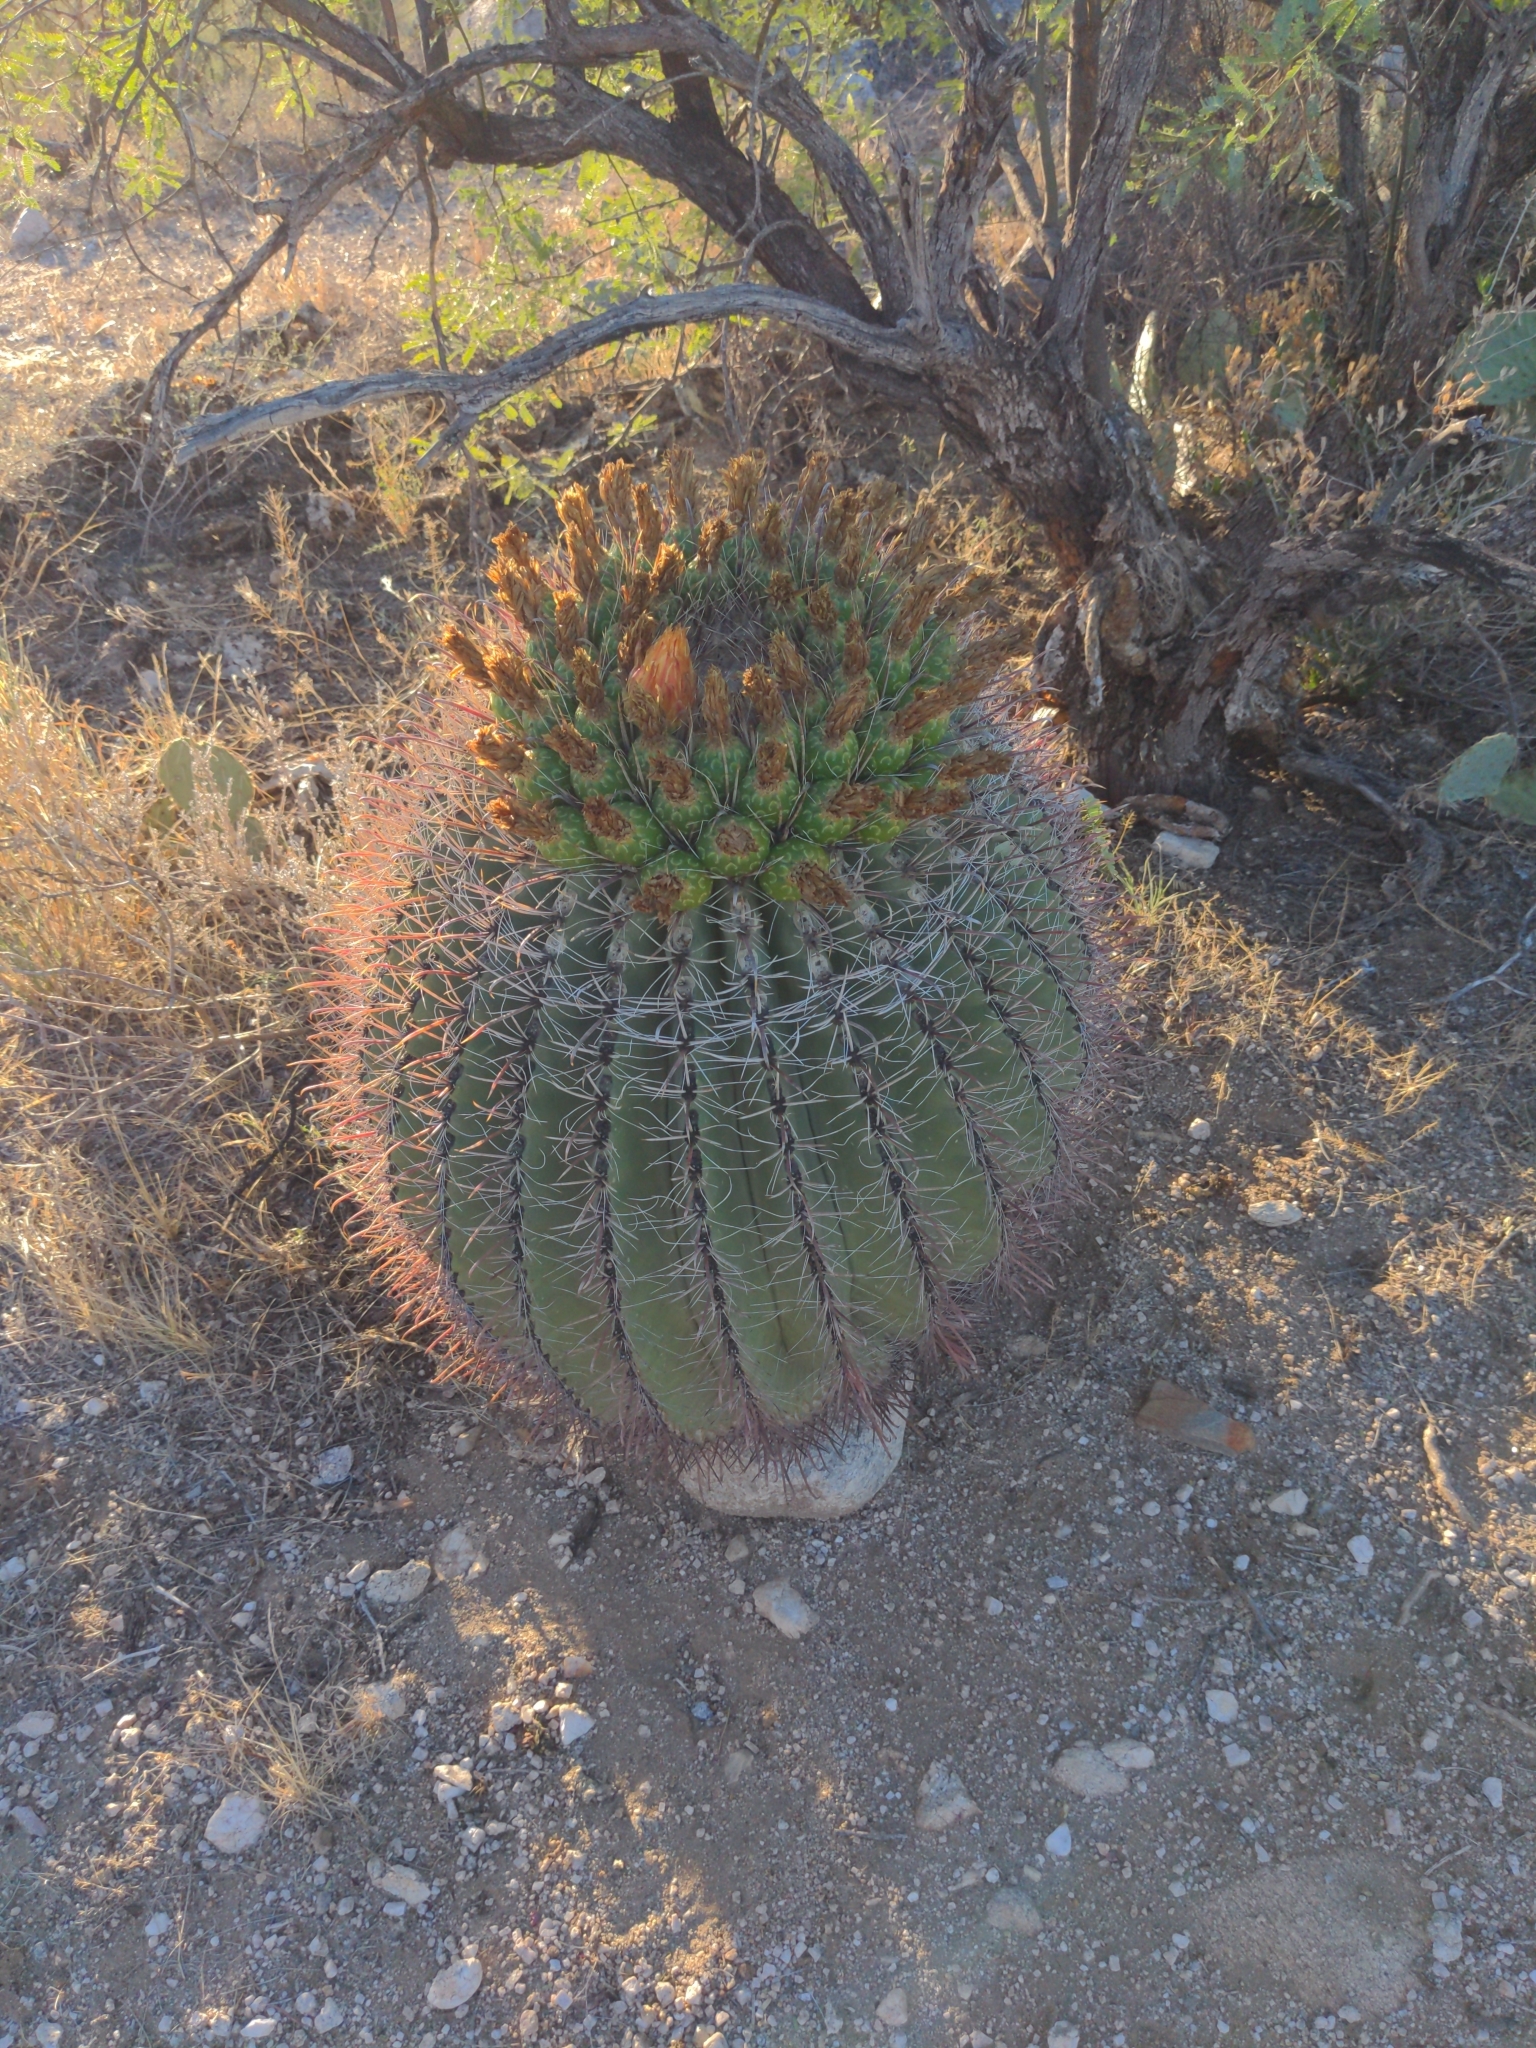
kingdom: Plantae
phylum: Tracheophyta
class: Magnoliopsida
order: Caryophyllales
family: Cactaceae
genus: Ferocactus
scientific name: Ferocactus wislizeni
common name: Candy barrel cactus
